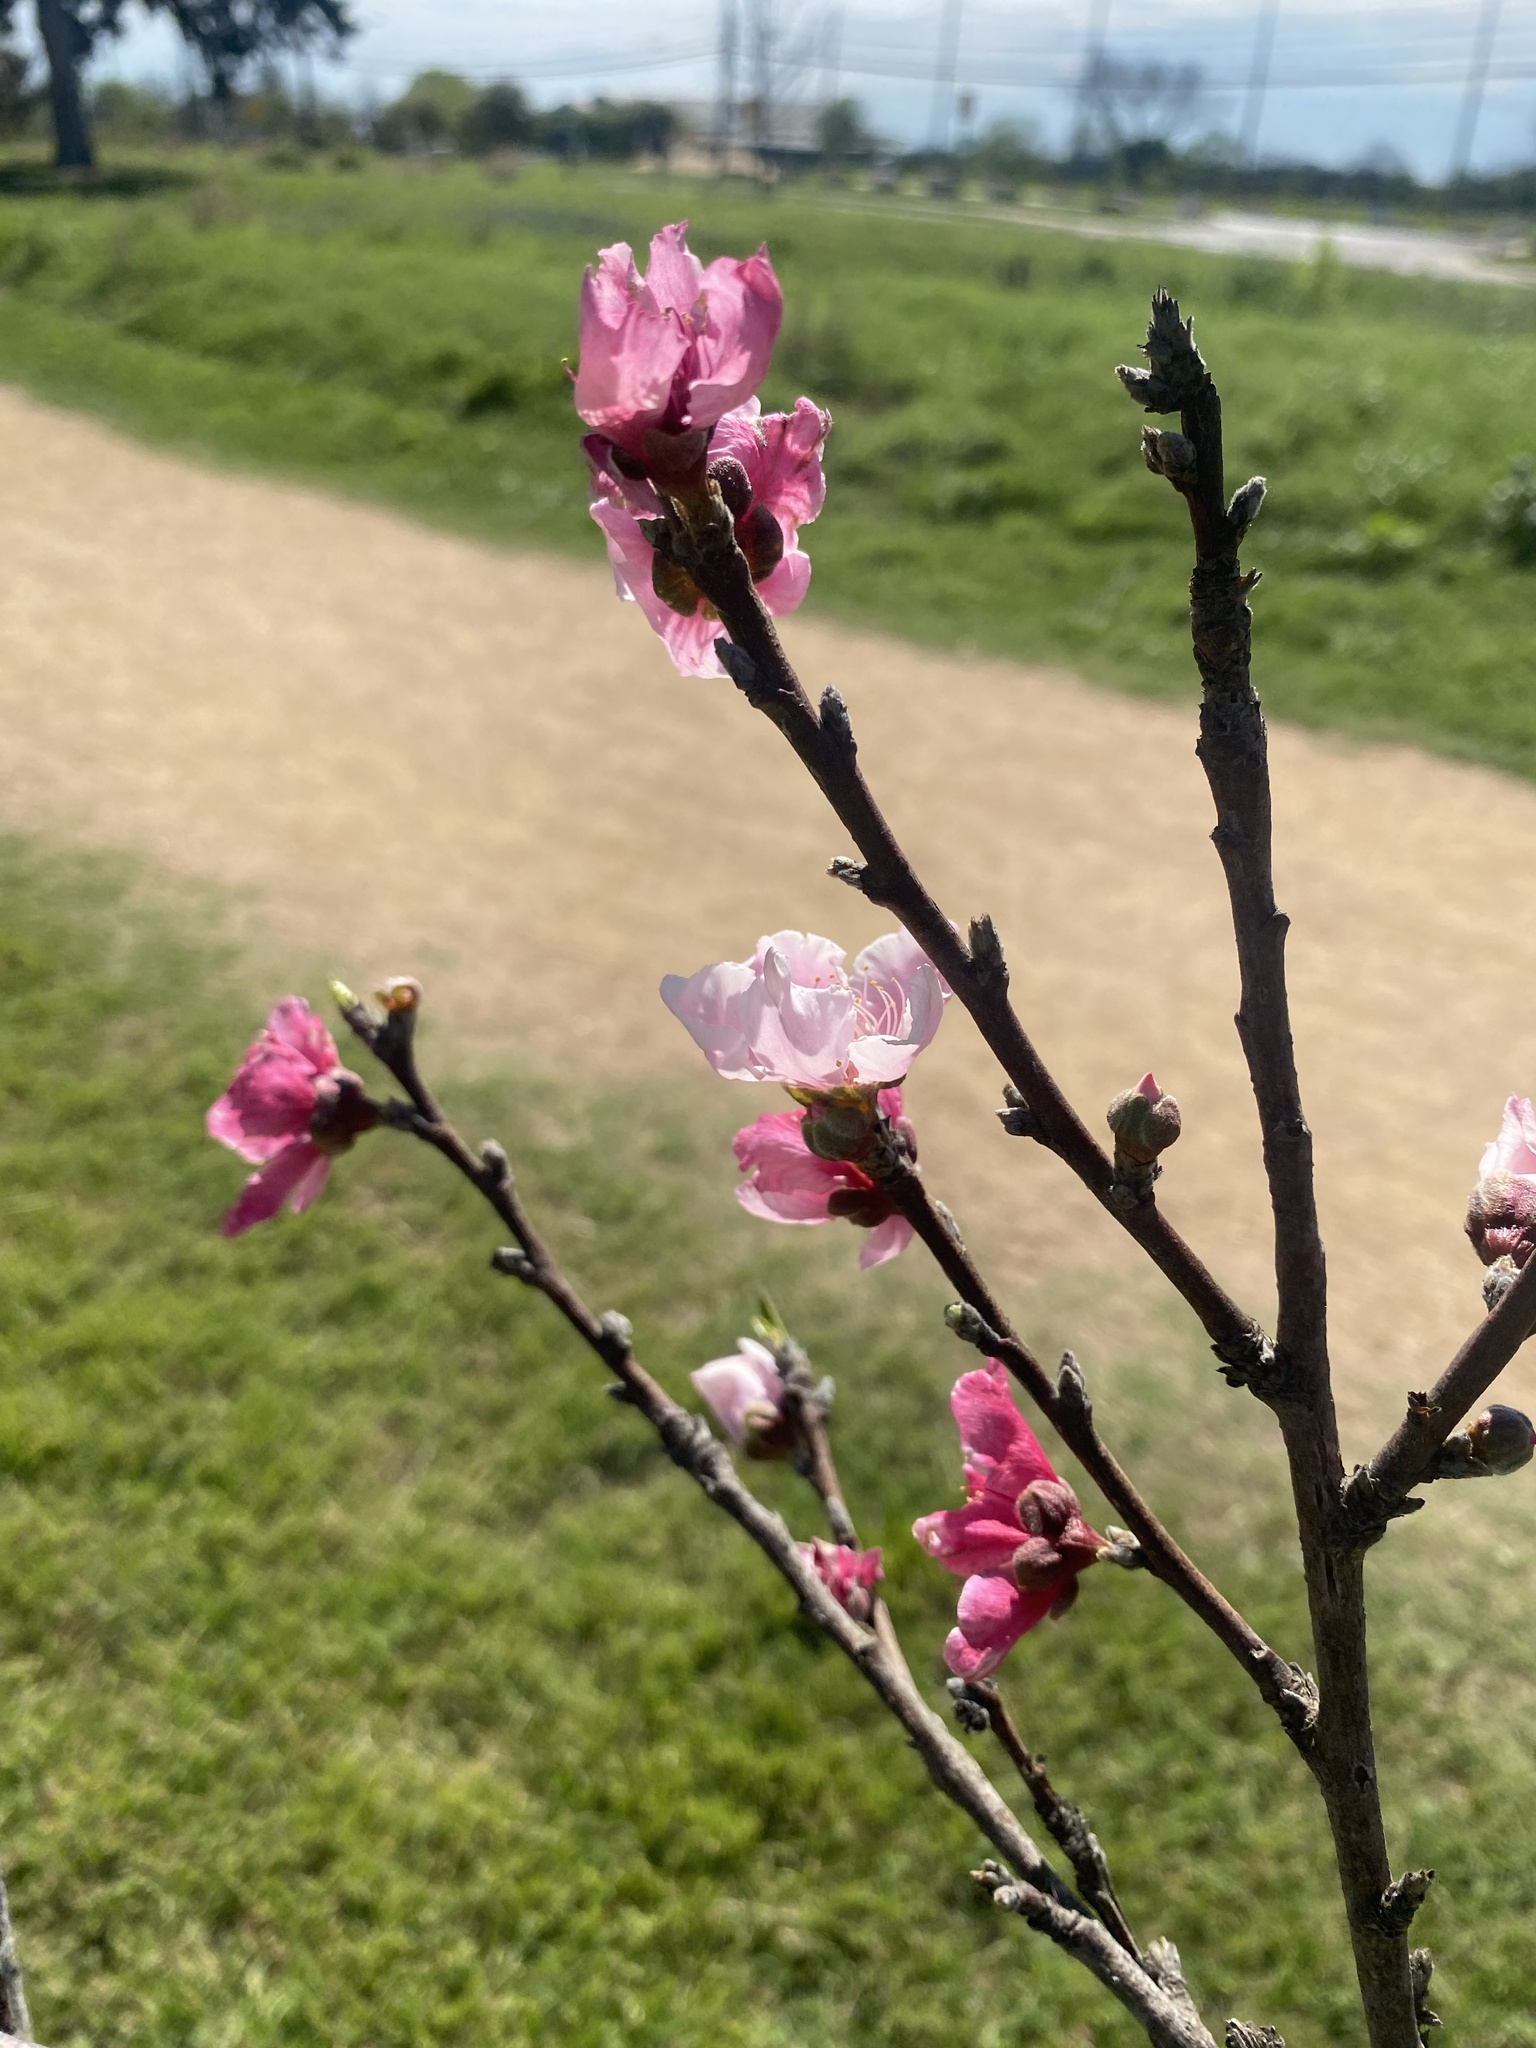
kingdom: Plantae
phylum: Tracheophyta
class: Magnoliopsida
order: Rosales
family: Rosaceae
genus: Prunus
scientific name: Prunus persica
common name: Peach
